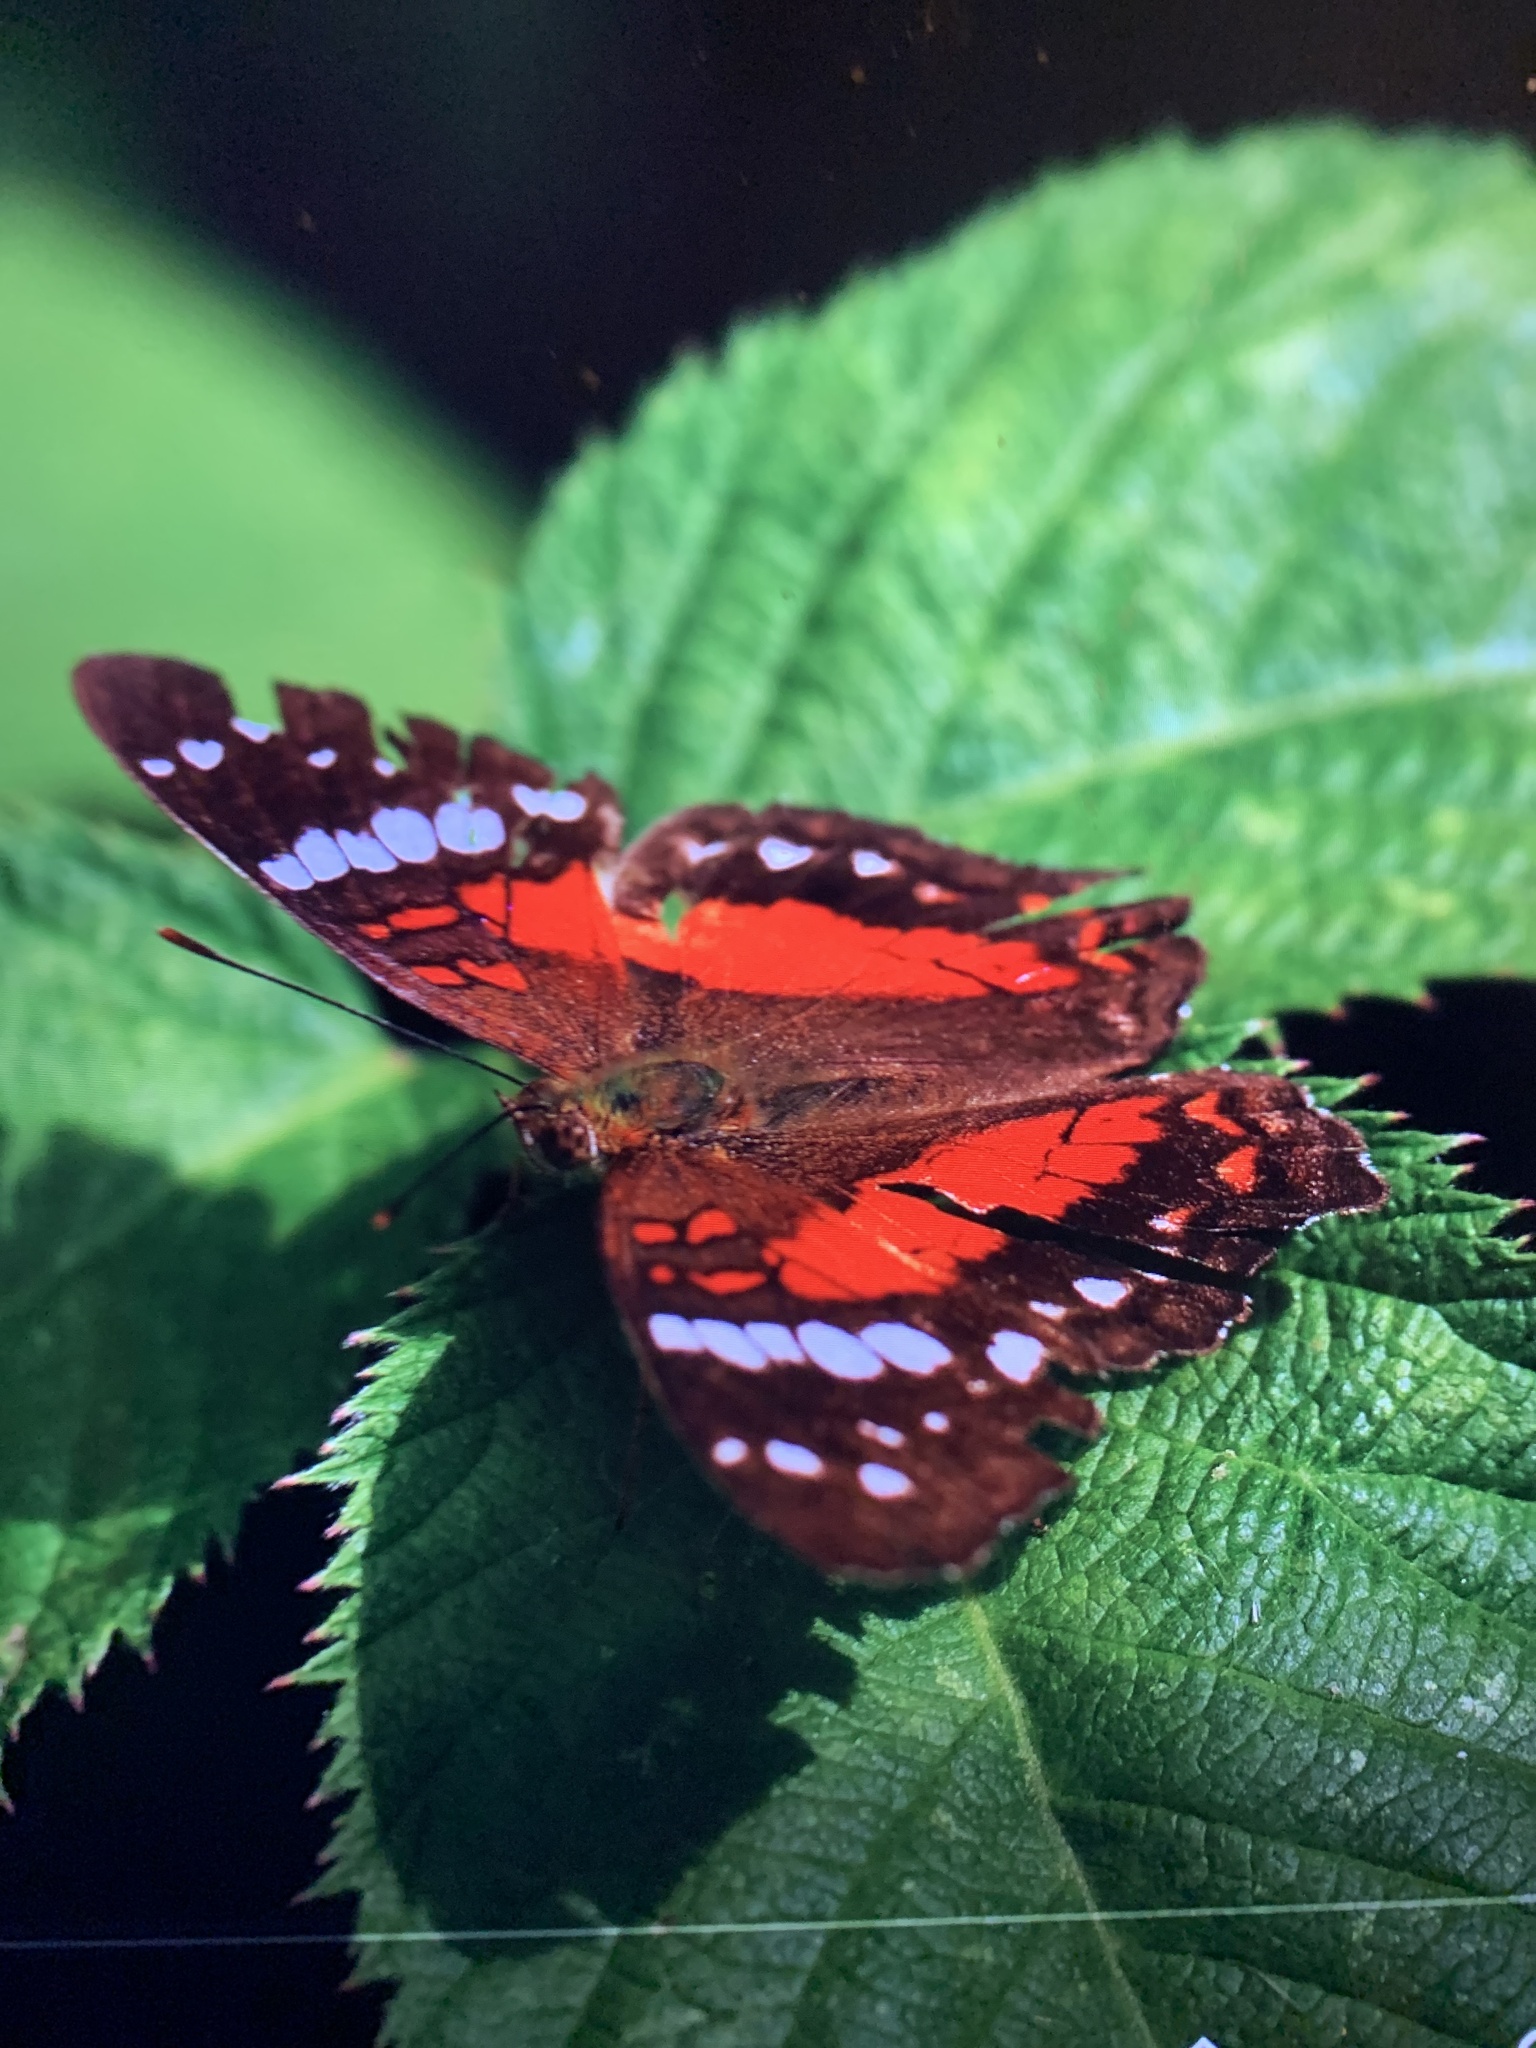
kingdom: Animalia
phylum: Arthropoda
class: Insecta
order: Lepidoptera
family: Nymphalidae
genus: Anartia
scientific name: Anartia amathea
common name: Red peacock
